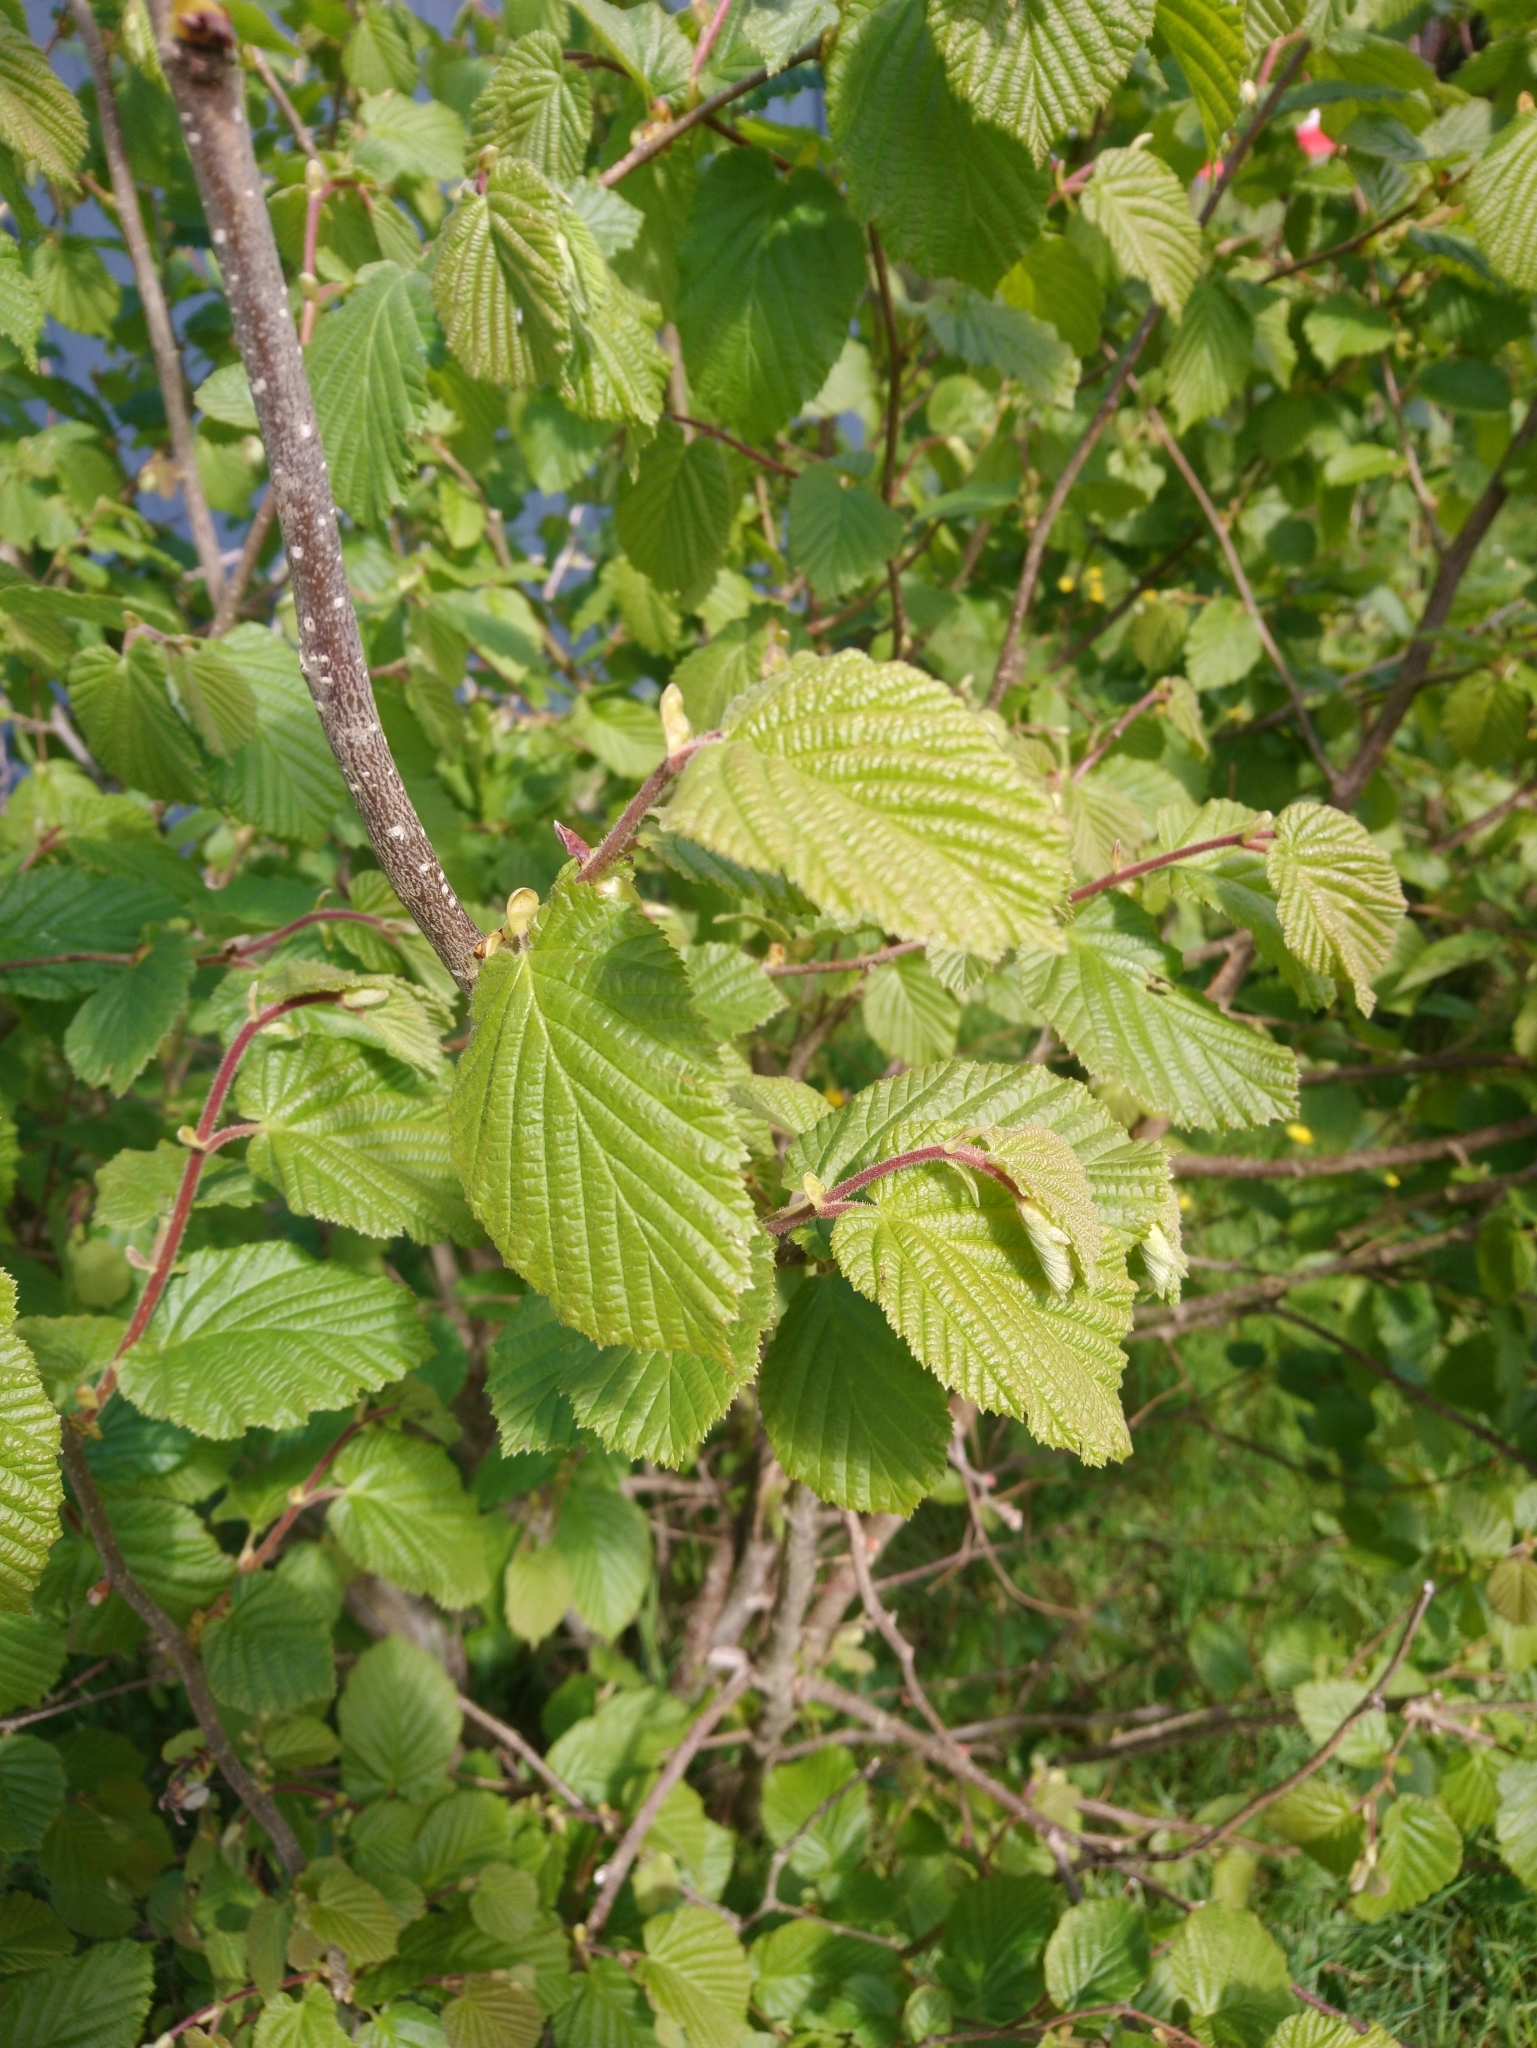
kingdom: Plantae
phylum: Tracheophyta
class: Magnoliopsida
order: Fagales
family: Betulaceae
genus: Corylus
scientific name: Corylus avellana
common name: European hazel
